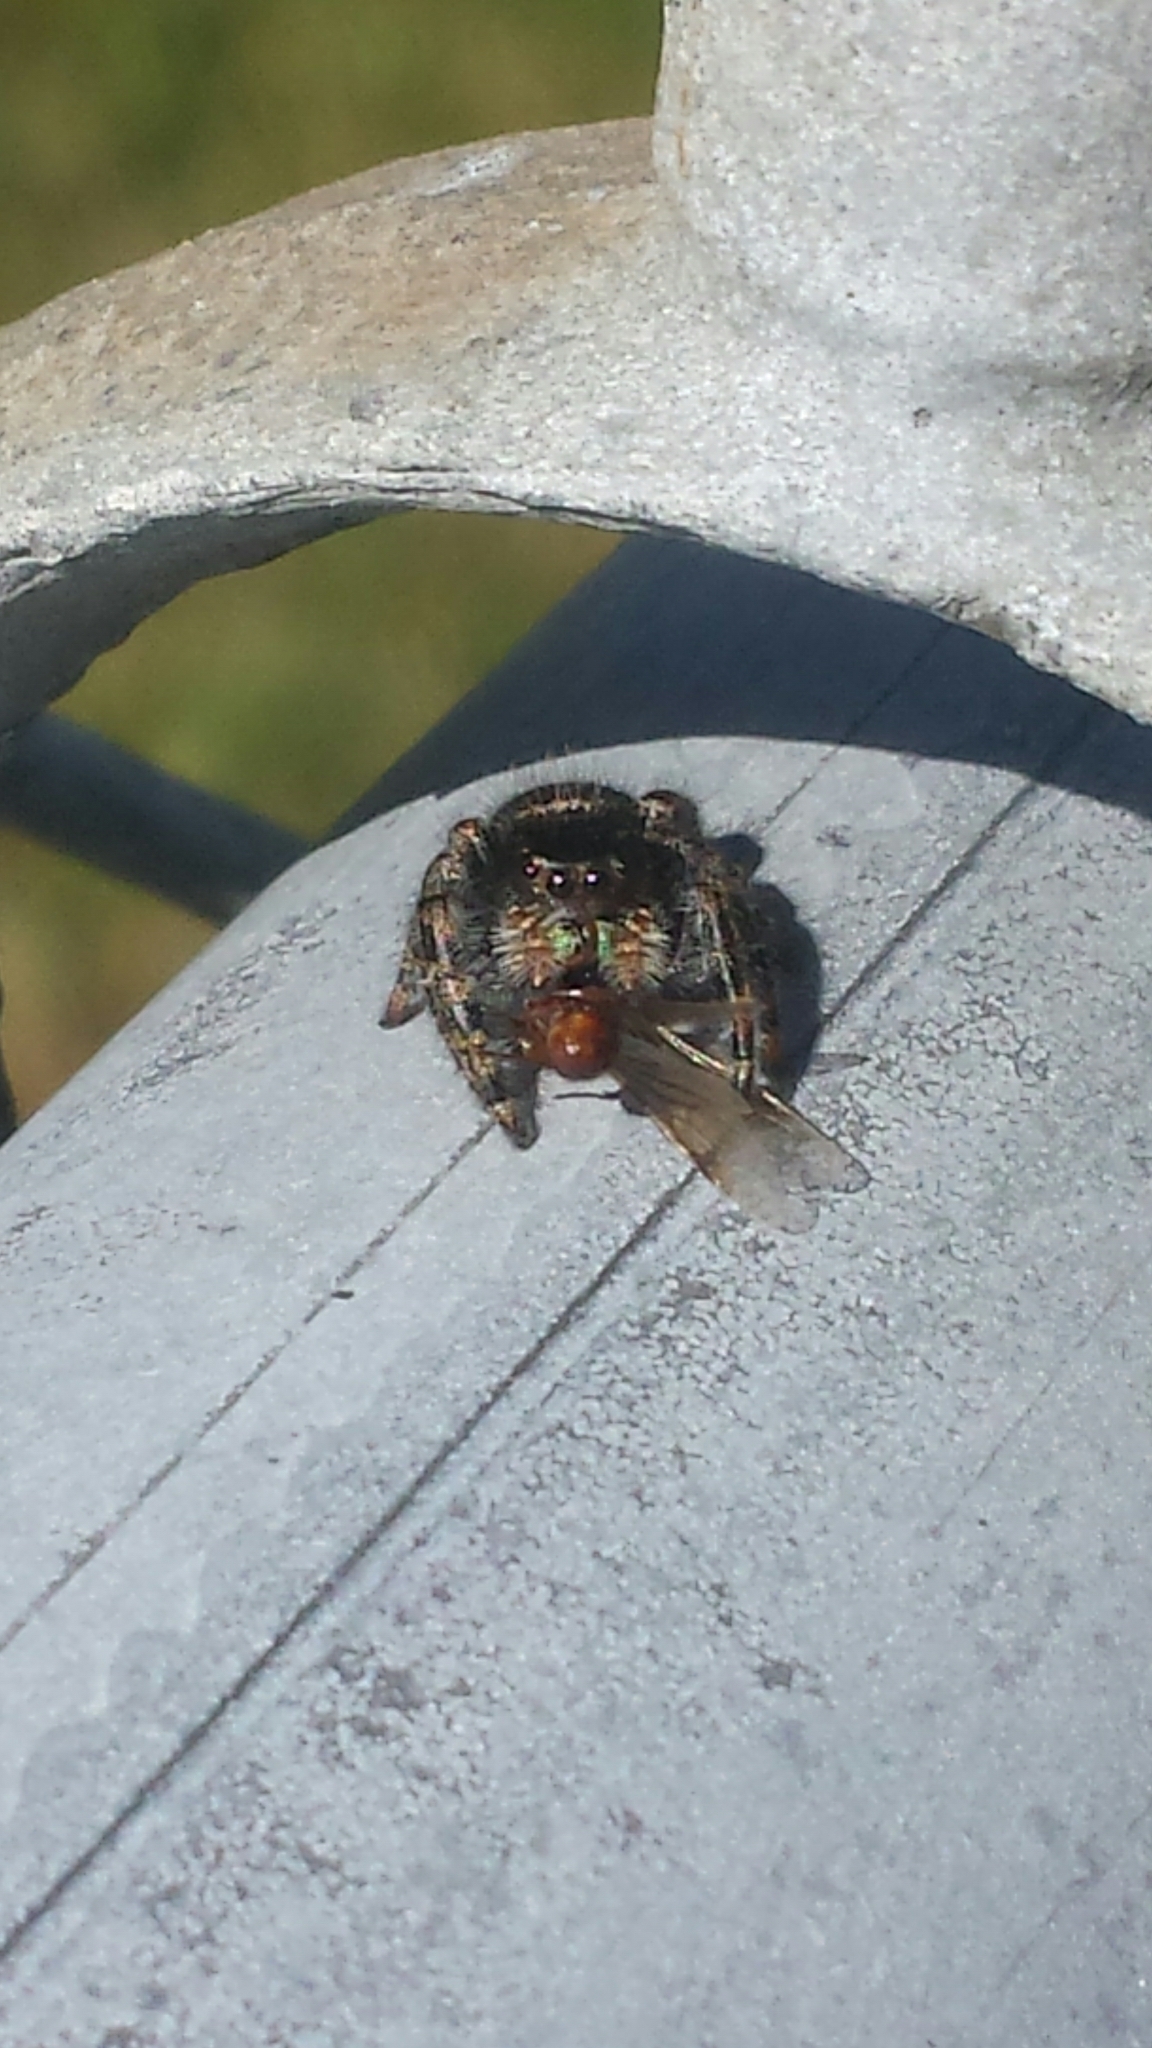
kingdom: Animalia
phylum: Arthropoda
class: Arachnida
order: Araneae
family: Salticidae
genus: Phidippus
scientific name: Phidippus audax
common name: Bold jumper
